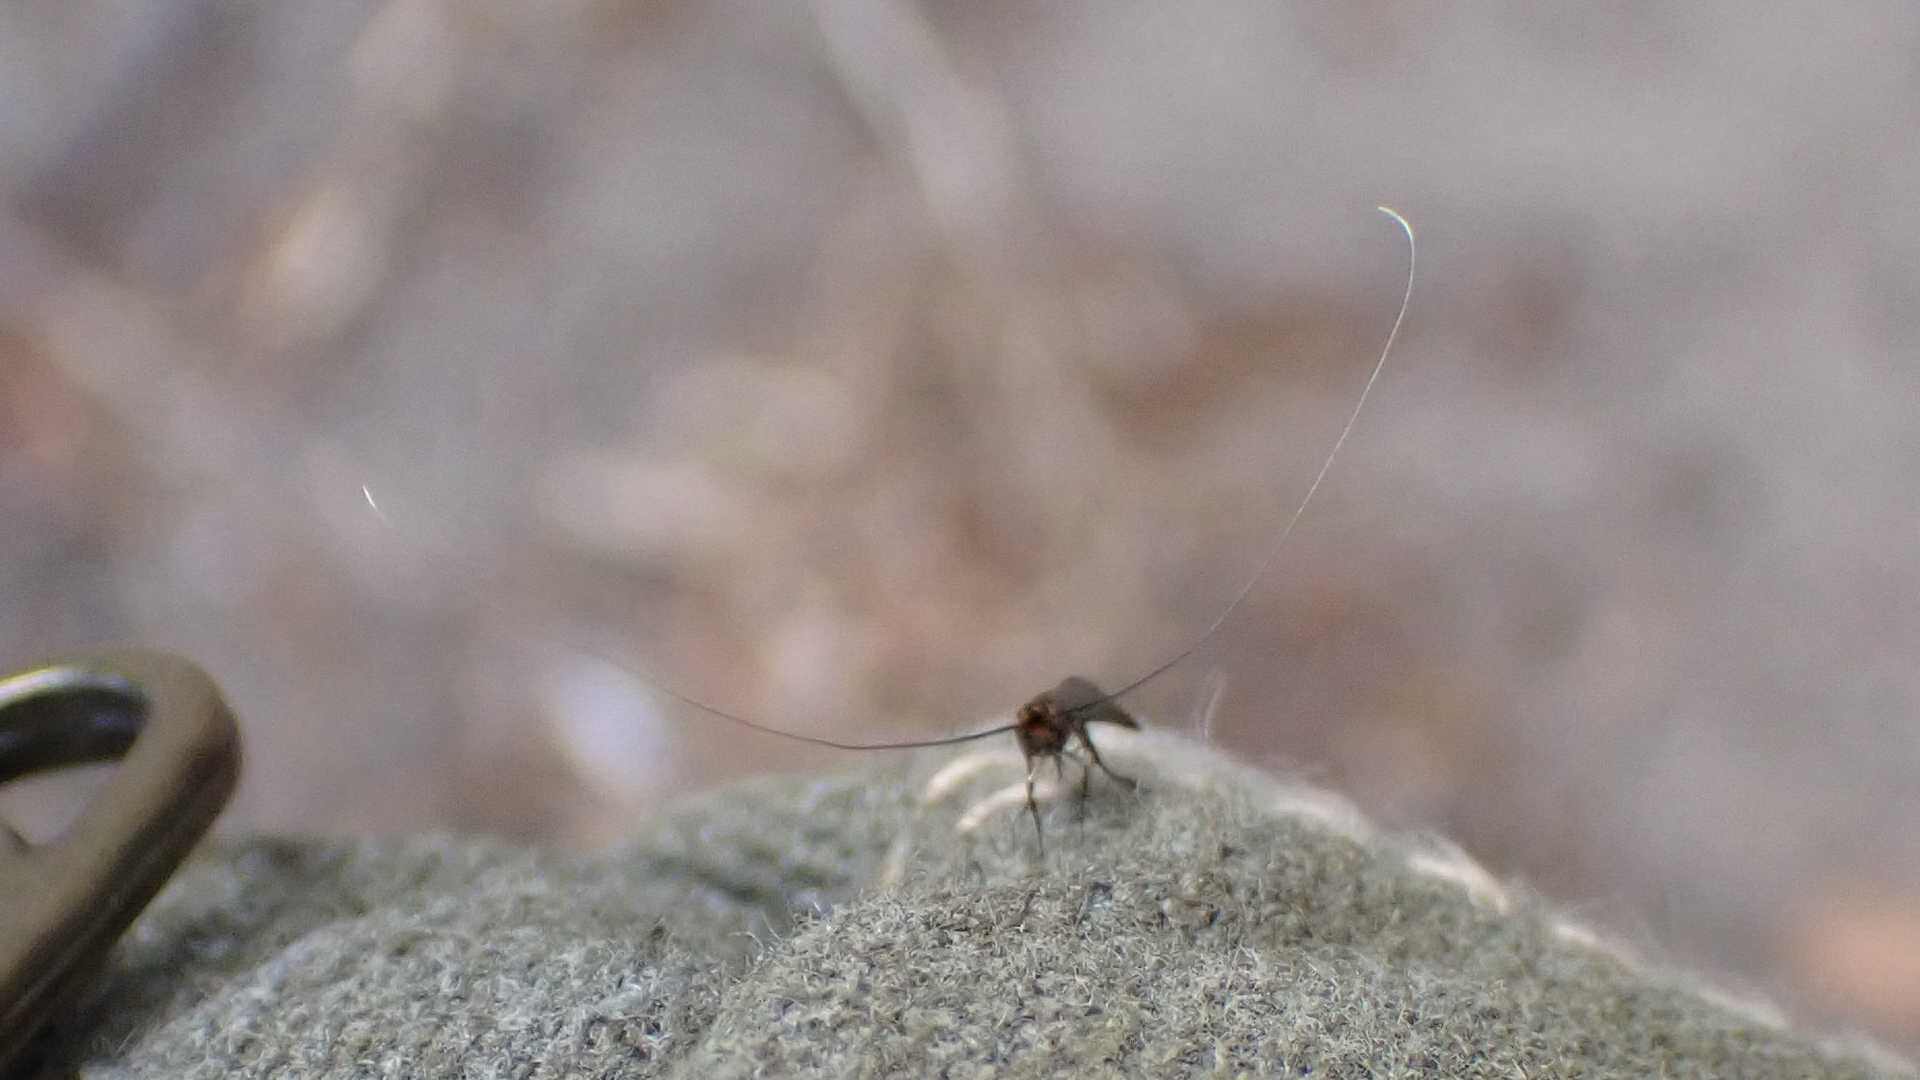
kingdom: Animalia
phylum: Arthropoda
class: Insecta
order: Lepidoptera
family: Adelidae
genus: Nemophora
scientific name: Nemophora metallica
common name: Brassy long-horn
